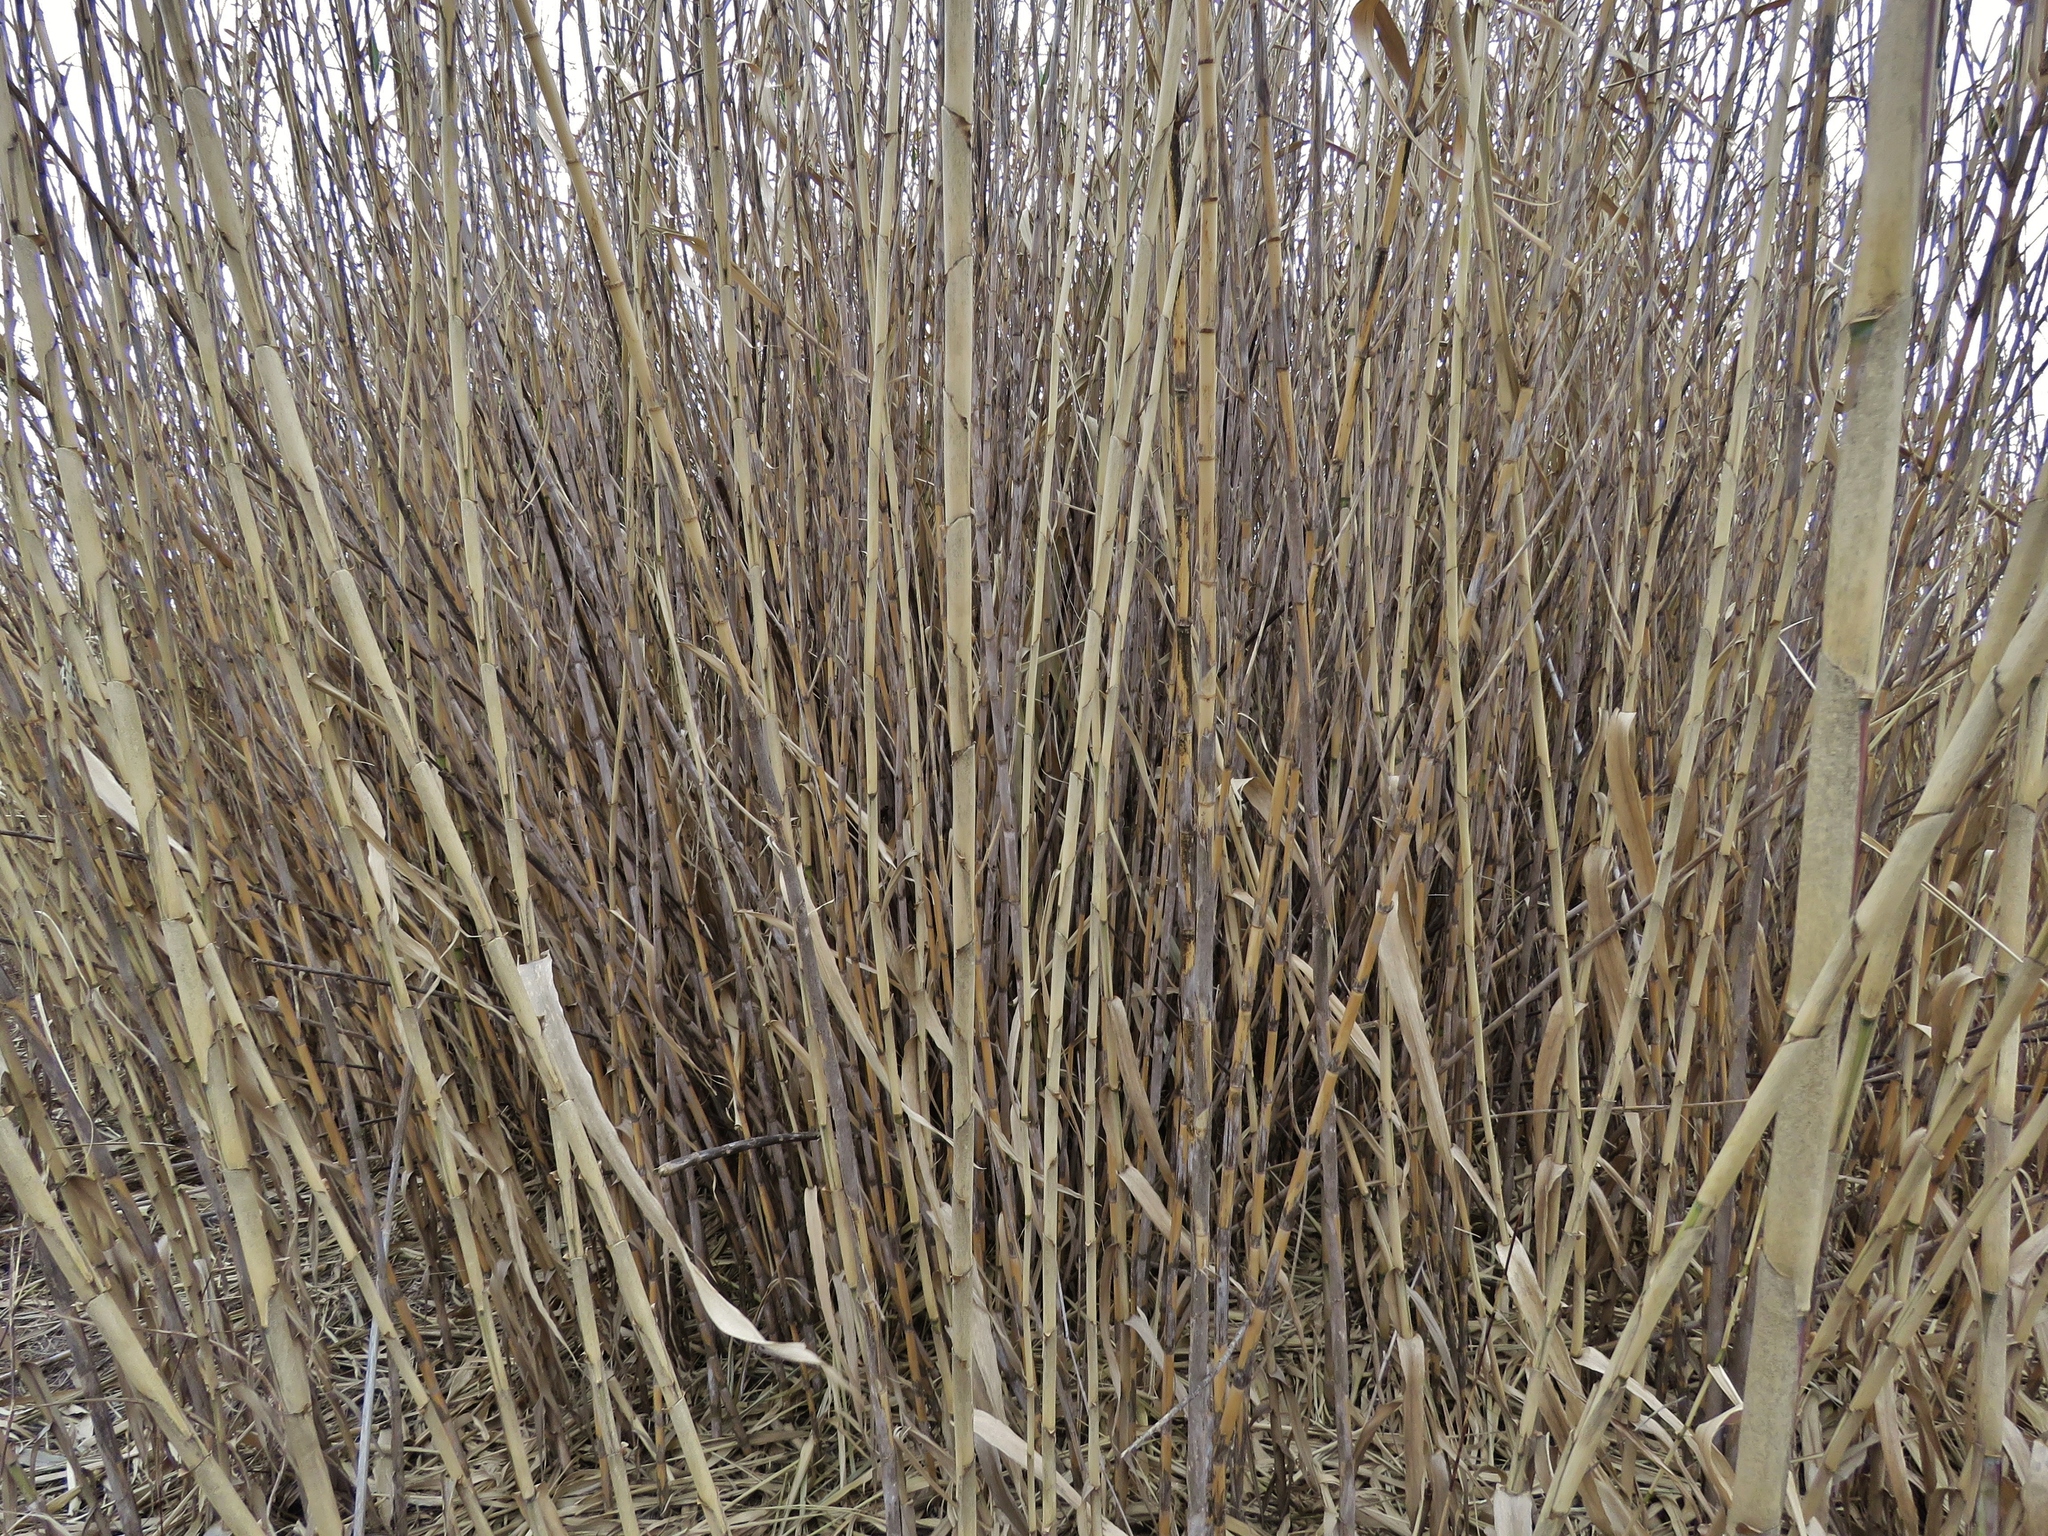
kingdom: Plantae
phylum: Tracheophyta
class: Liliopsida
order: Poales
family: Poaceae
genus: Arundo
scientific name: Arundo donax
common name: Giant reed
